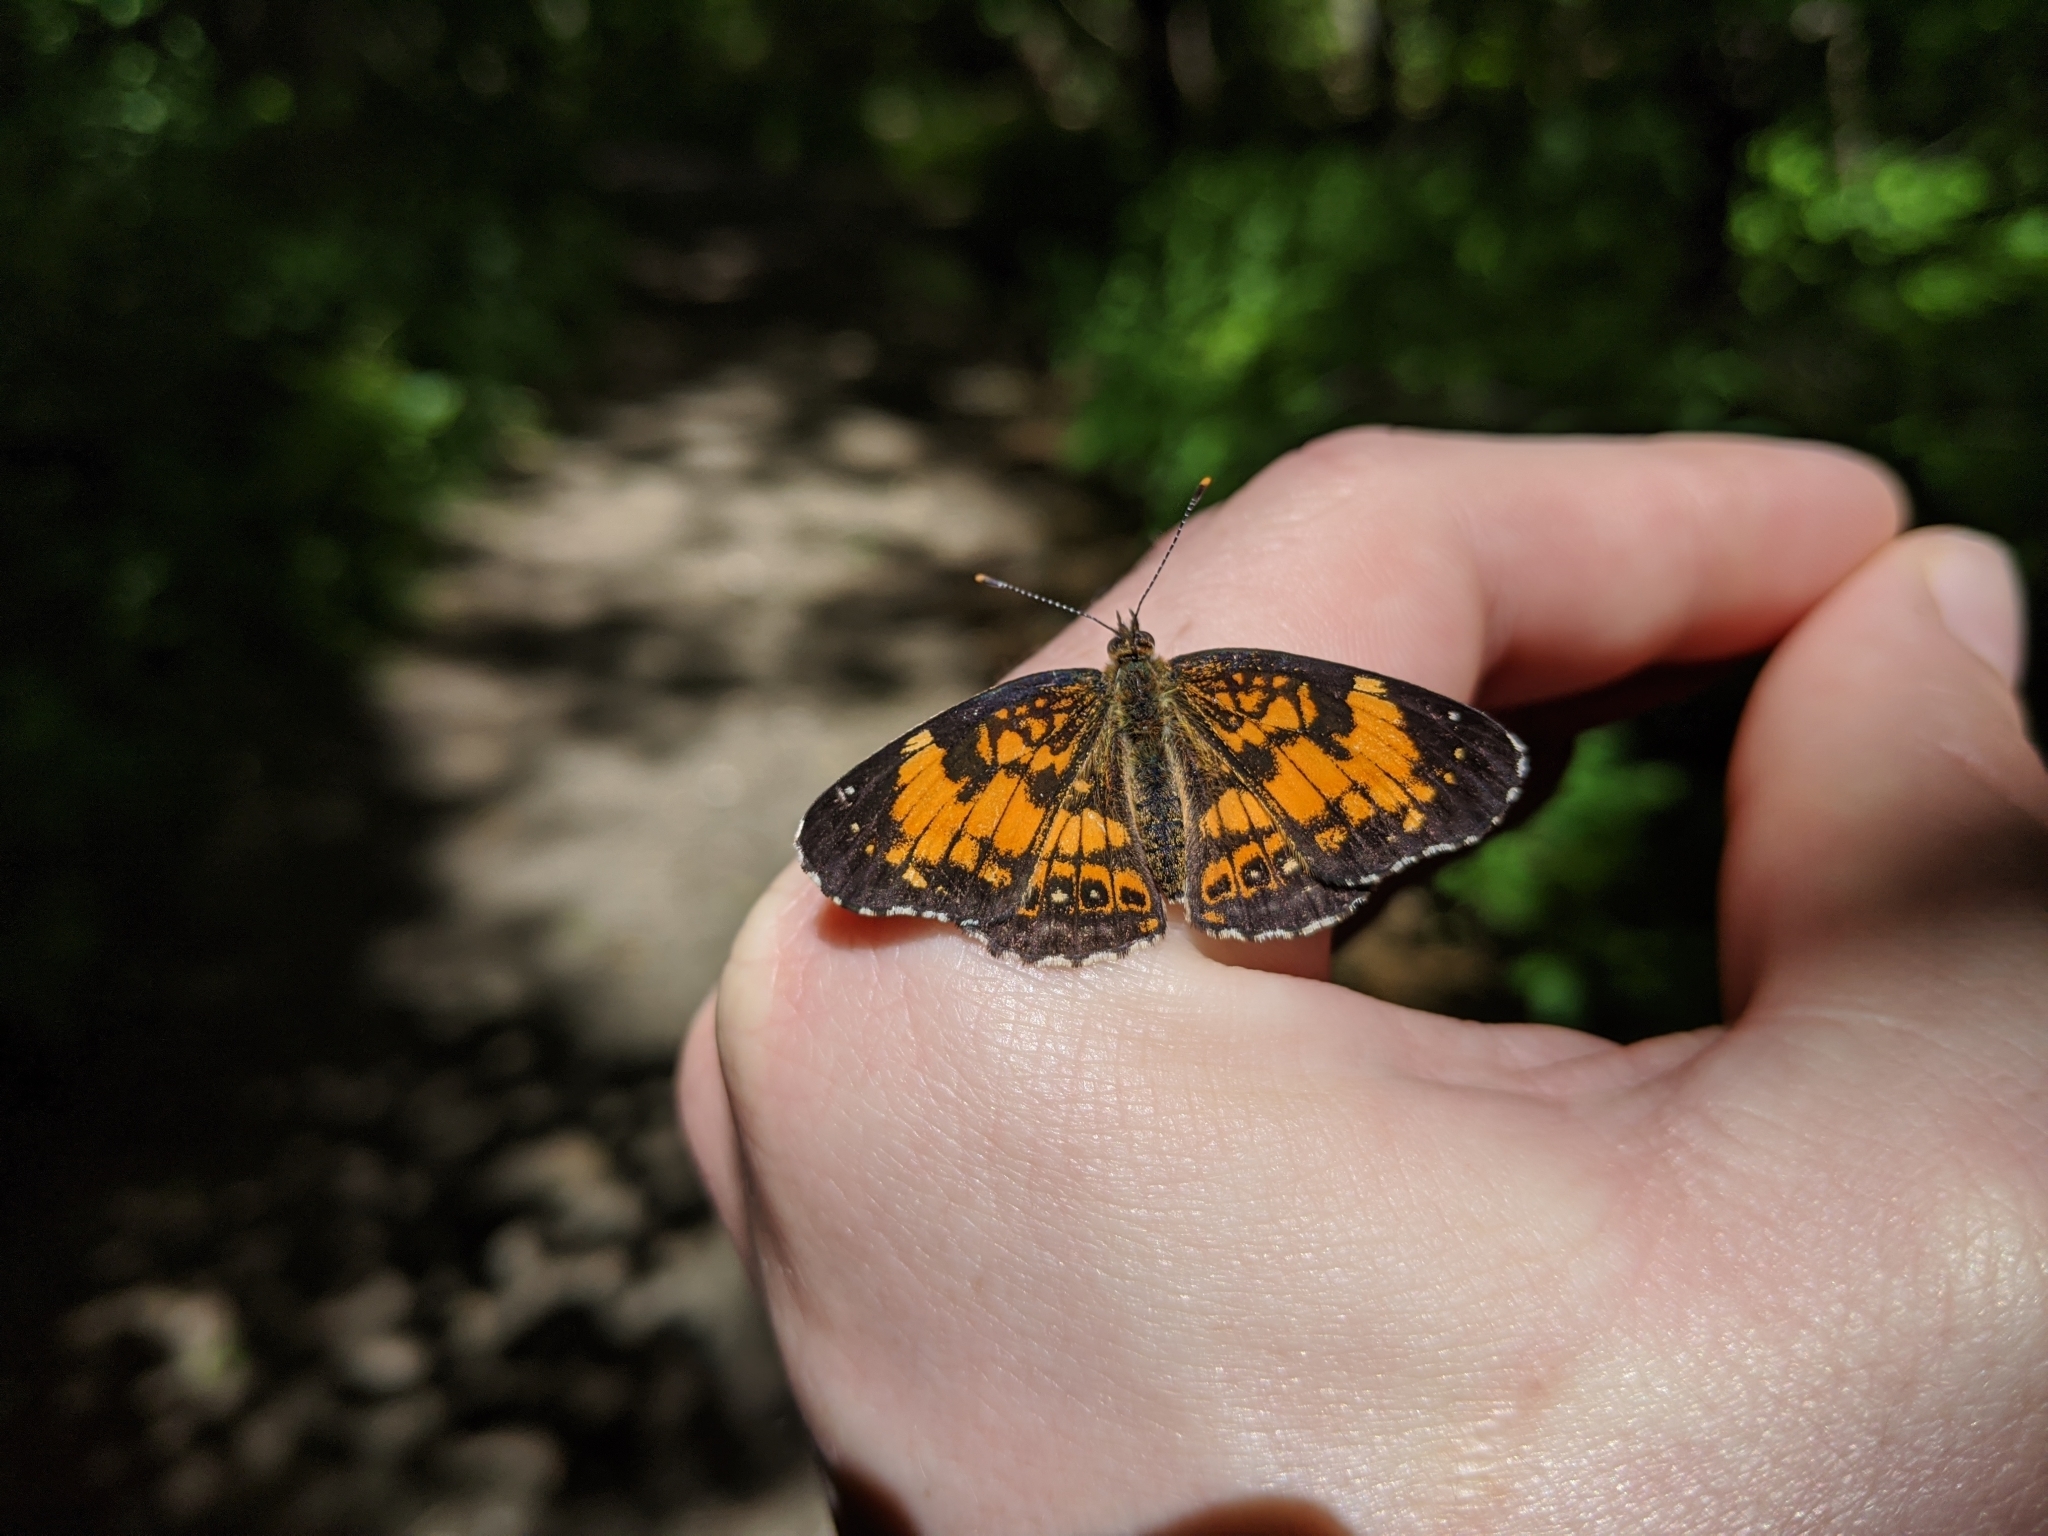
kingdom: Animalia
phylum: Arthropoda
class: Insecta
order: Lepidoptera
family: Nymphalidae
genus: Chlosyne
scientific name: Chlosyne nycteis
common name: Silvery checkerspot
